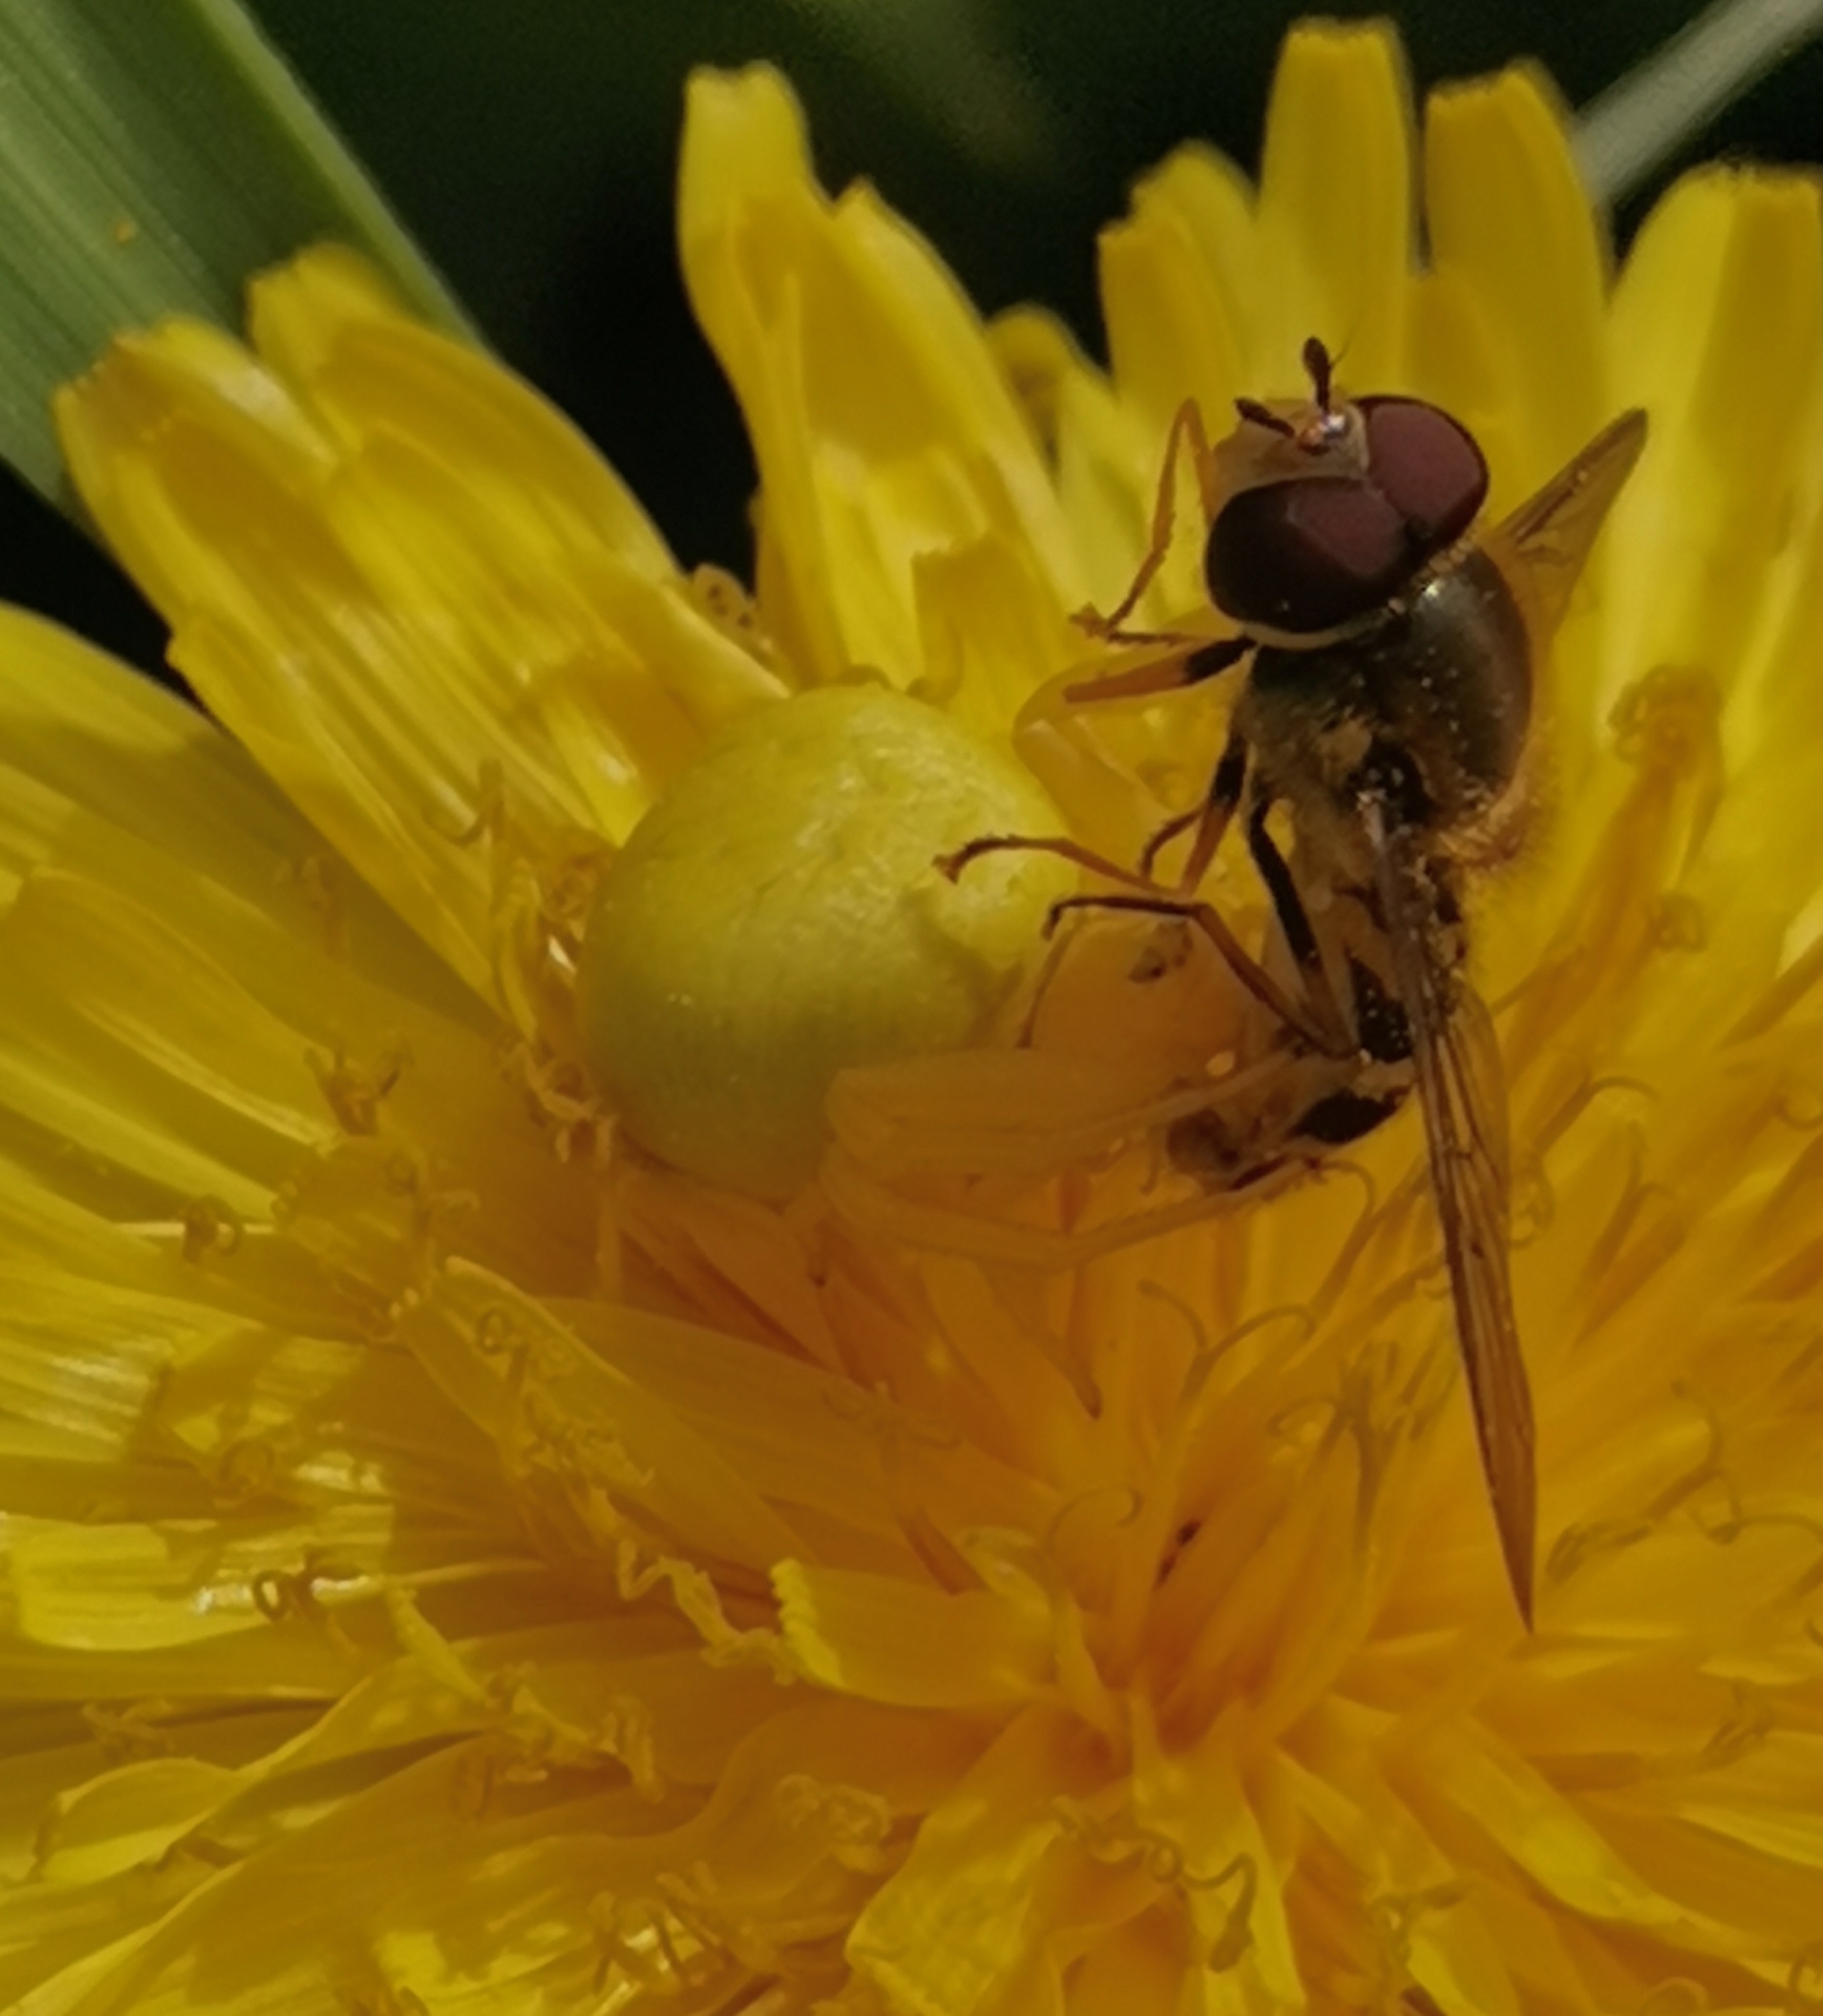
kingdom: Animalia
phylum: Arthropoda
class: Arachnida
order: Araneae
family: Thomisidae
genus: Misumena
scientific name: Misumena vatia
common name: Goldenrod crab spider
